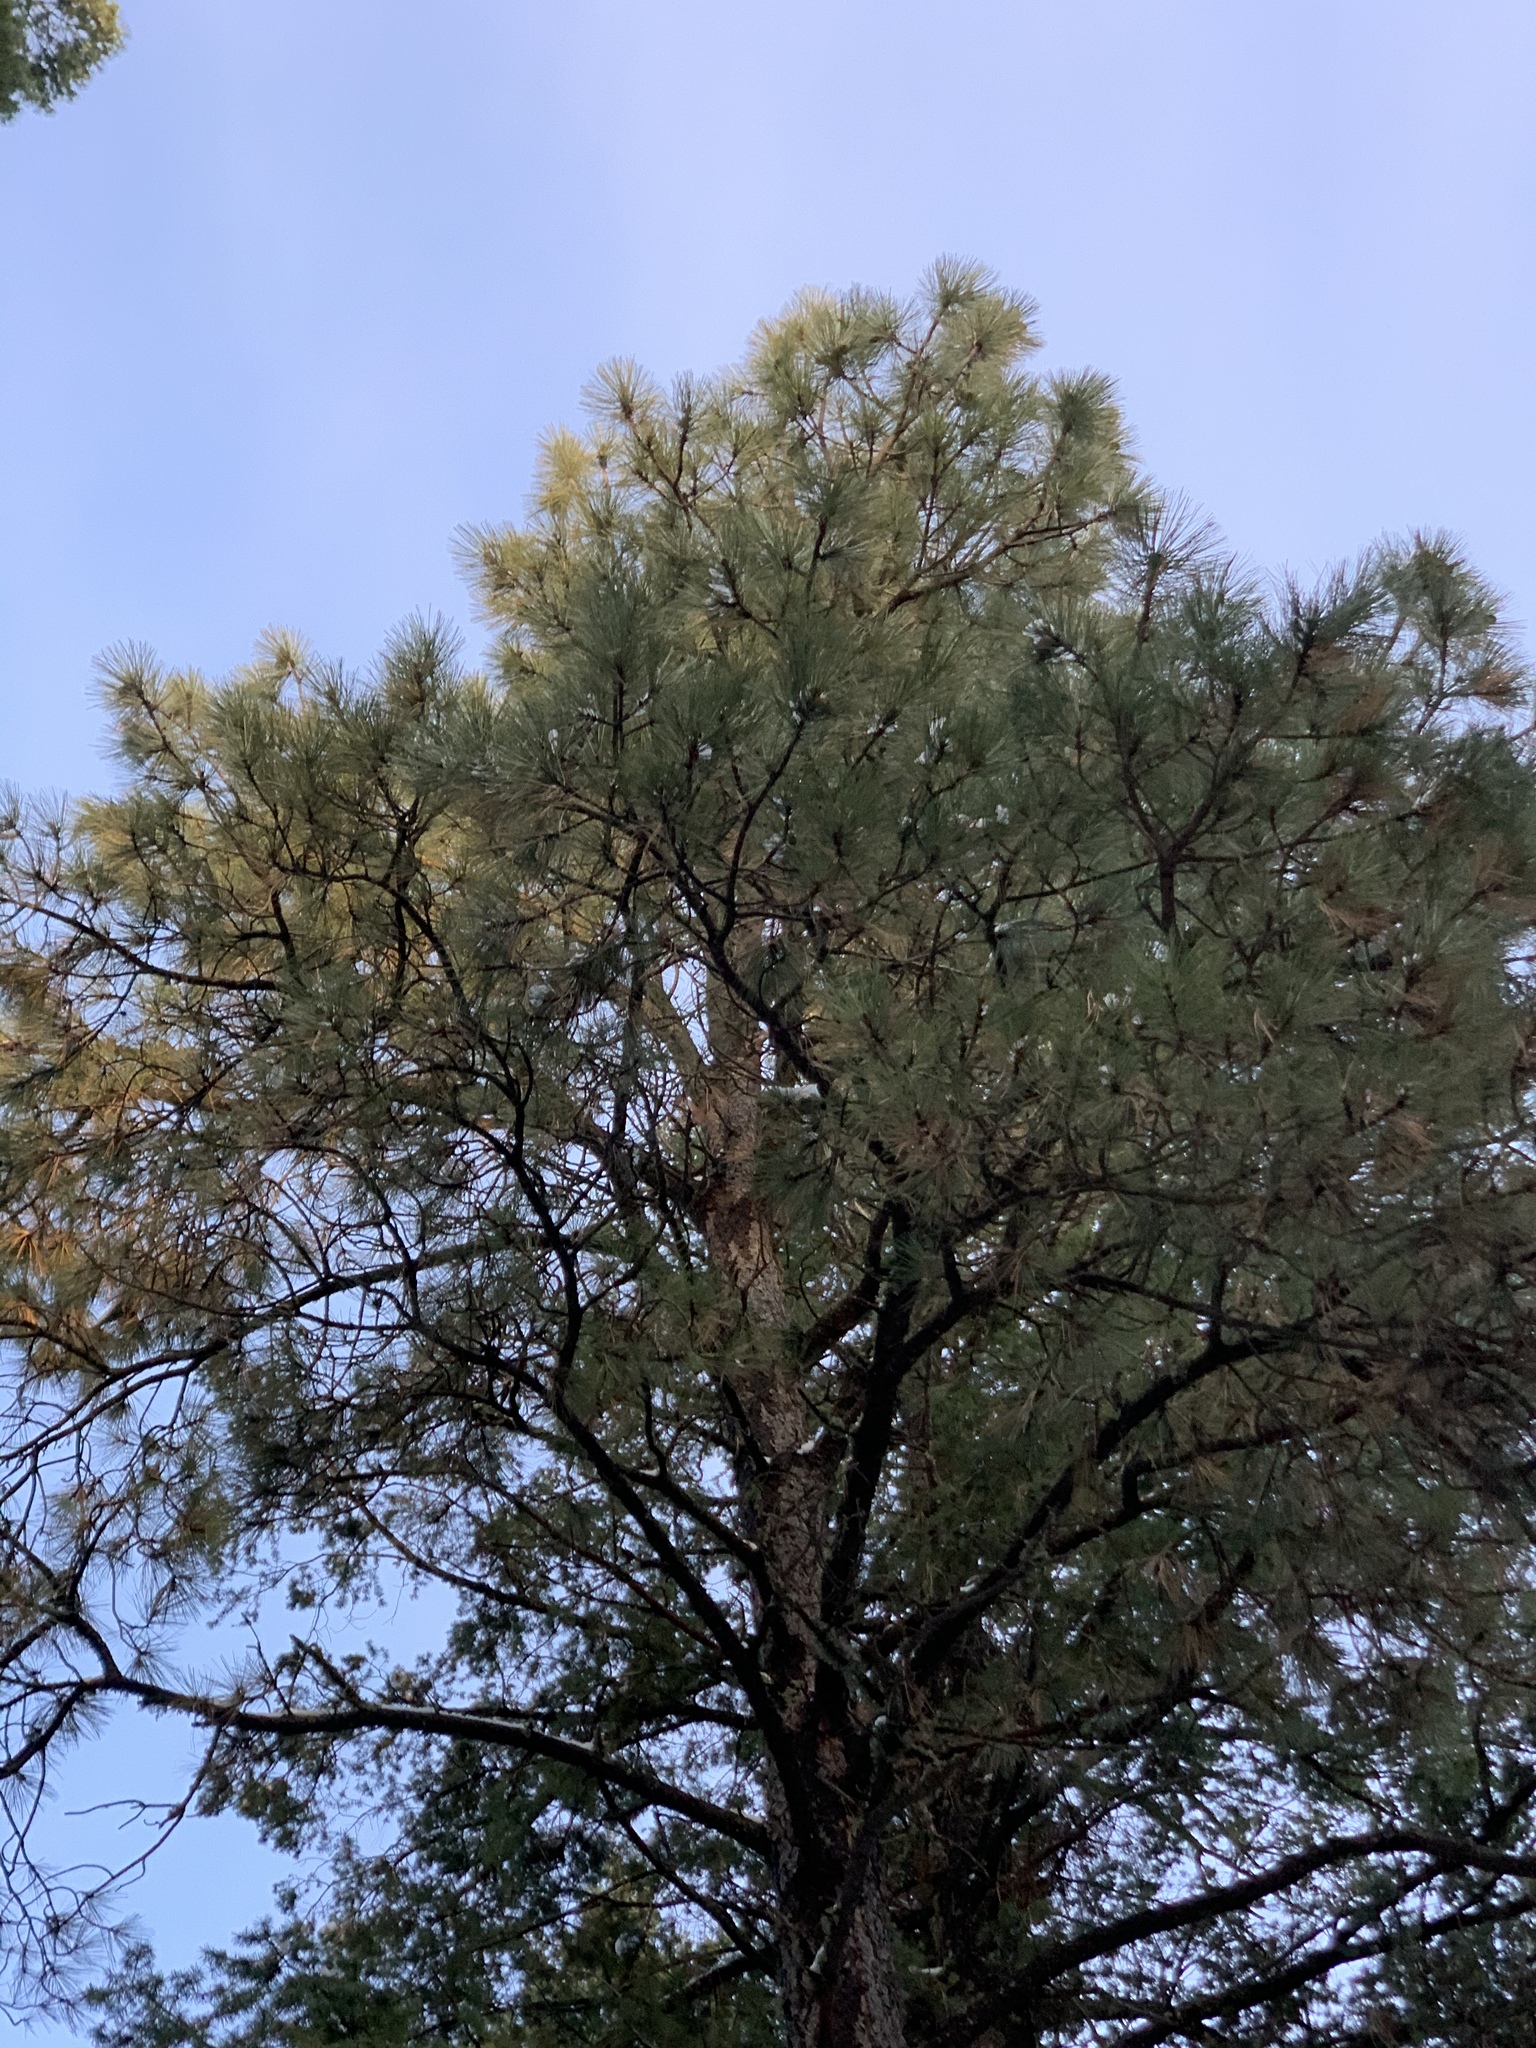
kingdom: Plantae
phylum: Tracheophyta
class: Pinopsida
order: Pinales
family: Pinaceae
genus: Pinus
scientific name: Pinus ponderosa
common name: Western yellow-pine
